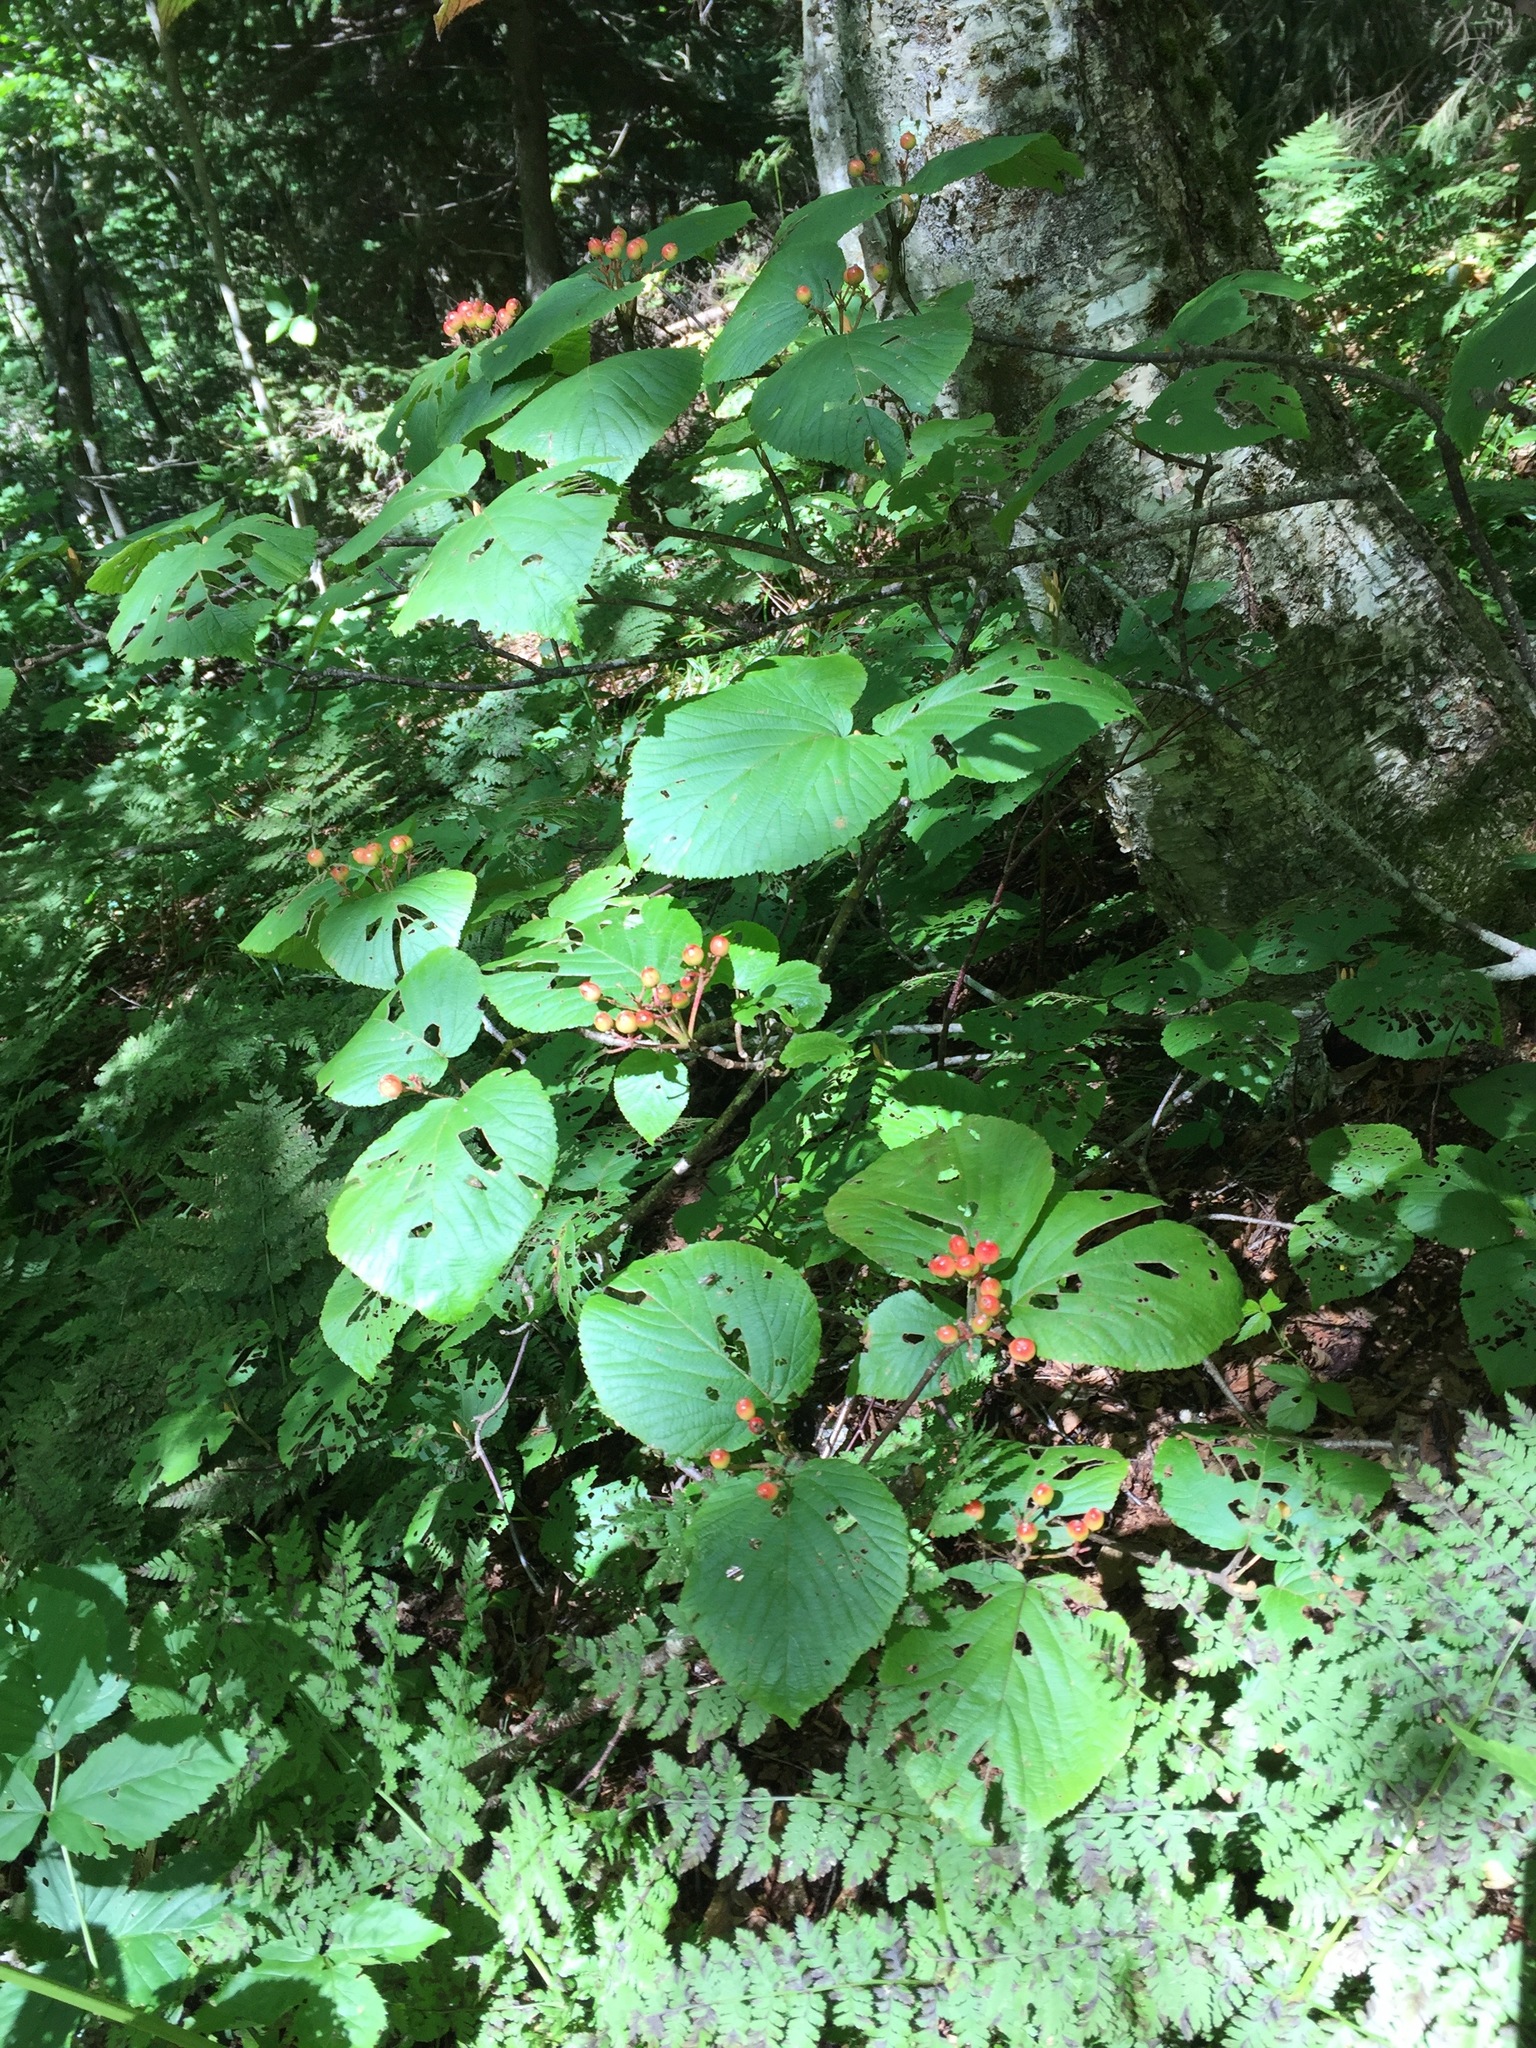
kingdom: Plantae
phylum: Tracheophyta
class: Magnoliopsida
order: Dipsacales
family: Viburnaceae
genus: Viburnum
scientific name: Viburnum lantanoides
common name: Hobblebush
